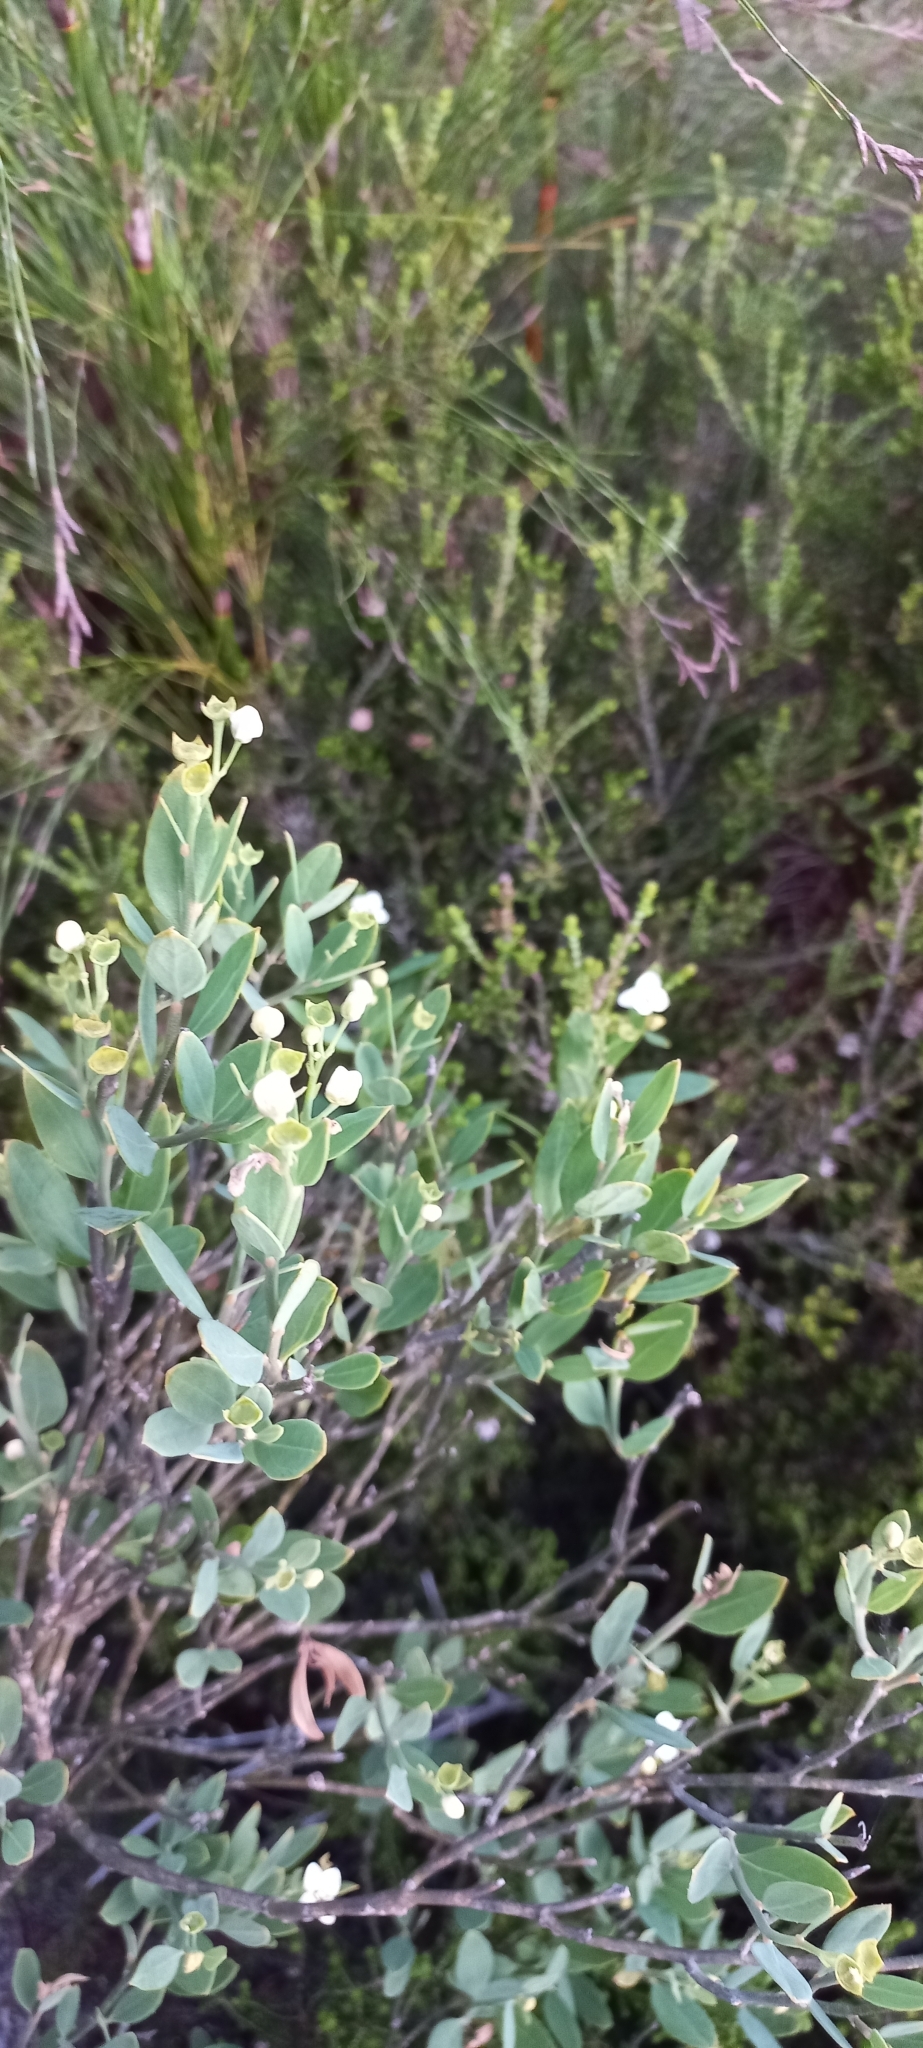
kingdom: Plantae
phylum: Tracheophyta
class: Magnoliopsida
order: Solanales
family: Montiniaceae
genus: Montinia
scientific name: Montinia caryophyllacea
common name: Wild clove-bush
